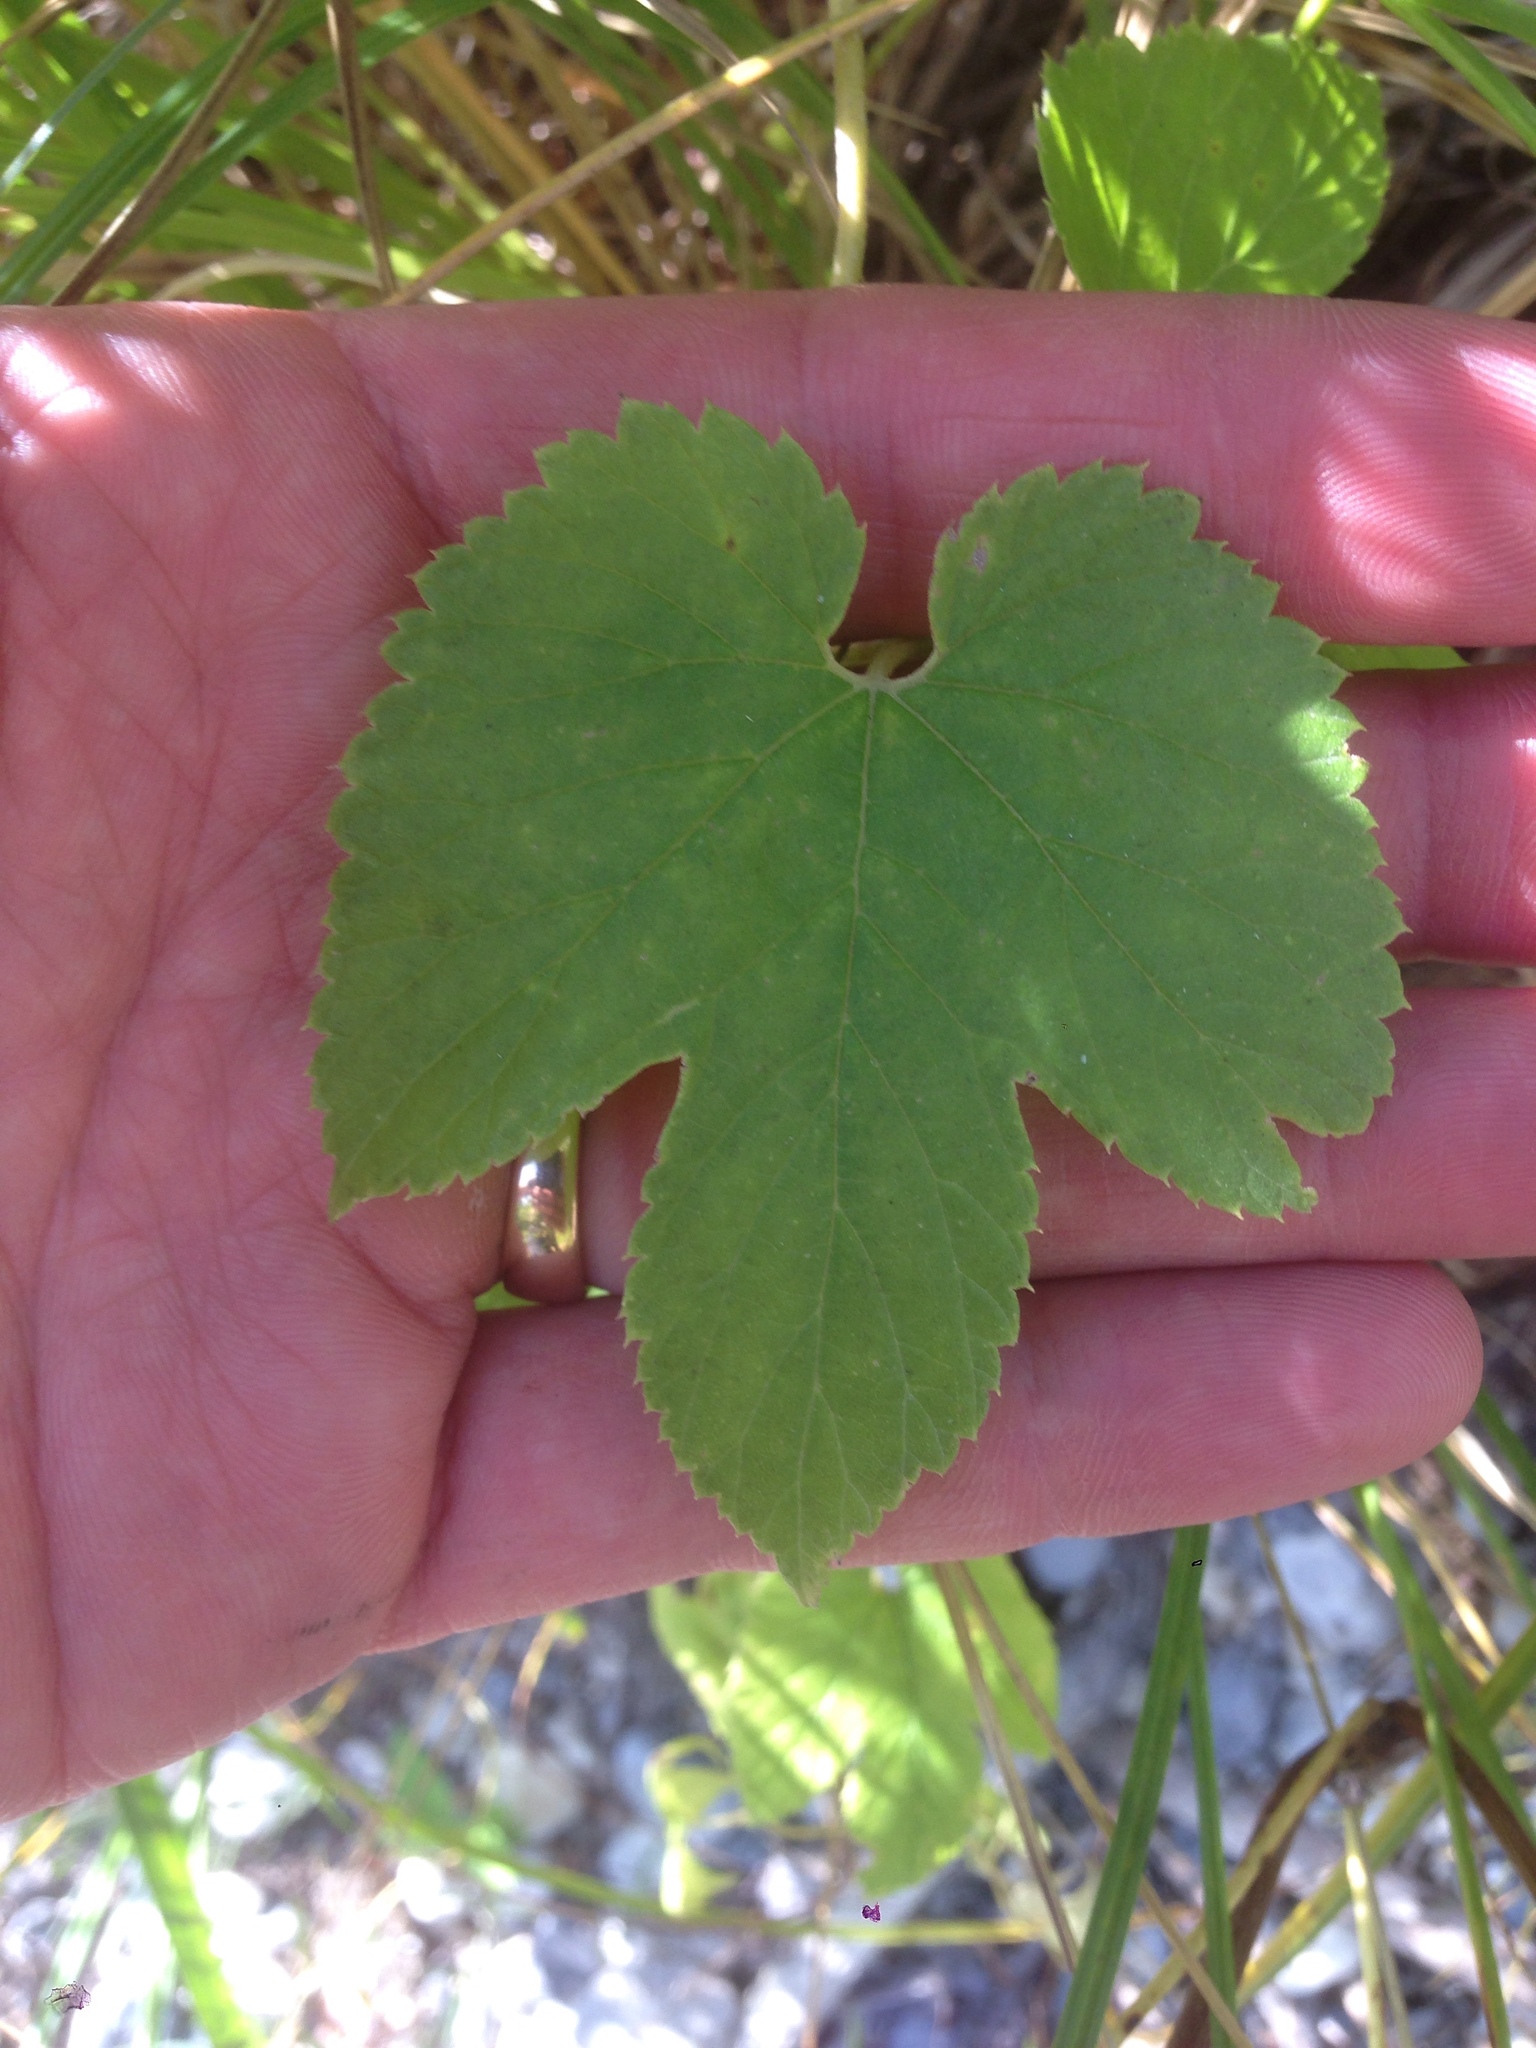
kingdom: Plantae
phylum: Tracheophyta
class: Magnoliopsida
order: Rosales
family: Cannabaceae
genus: Humulus
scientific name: Humulus lupulus
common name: Hop
